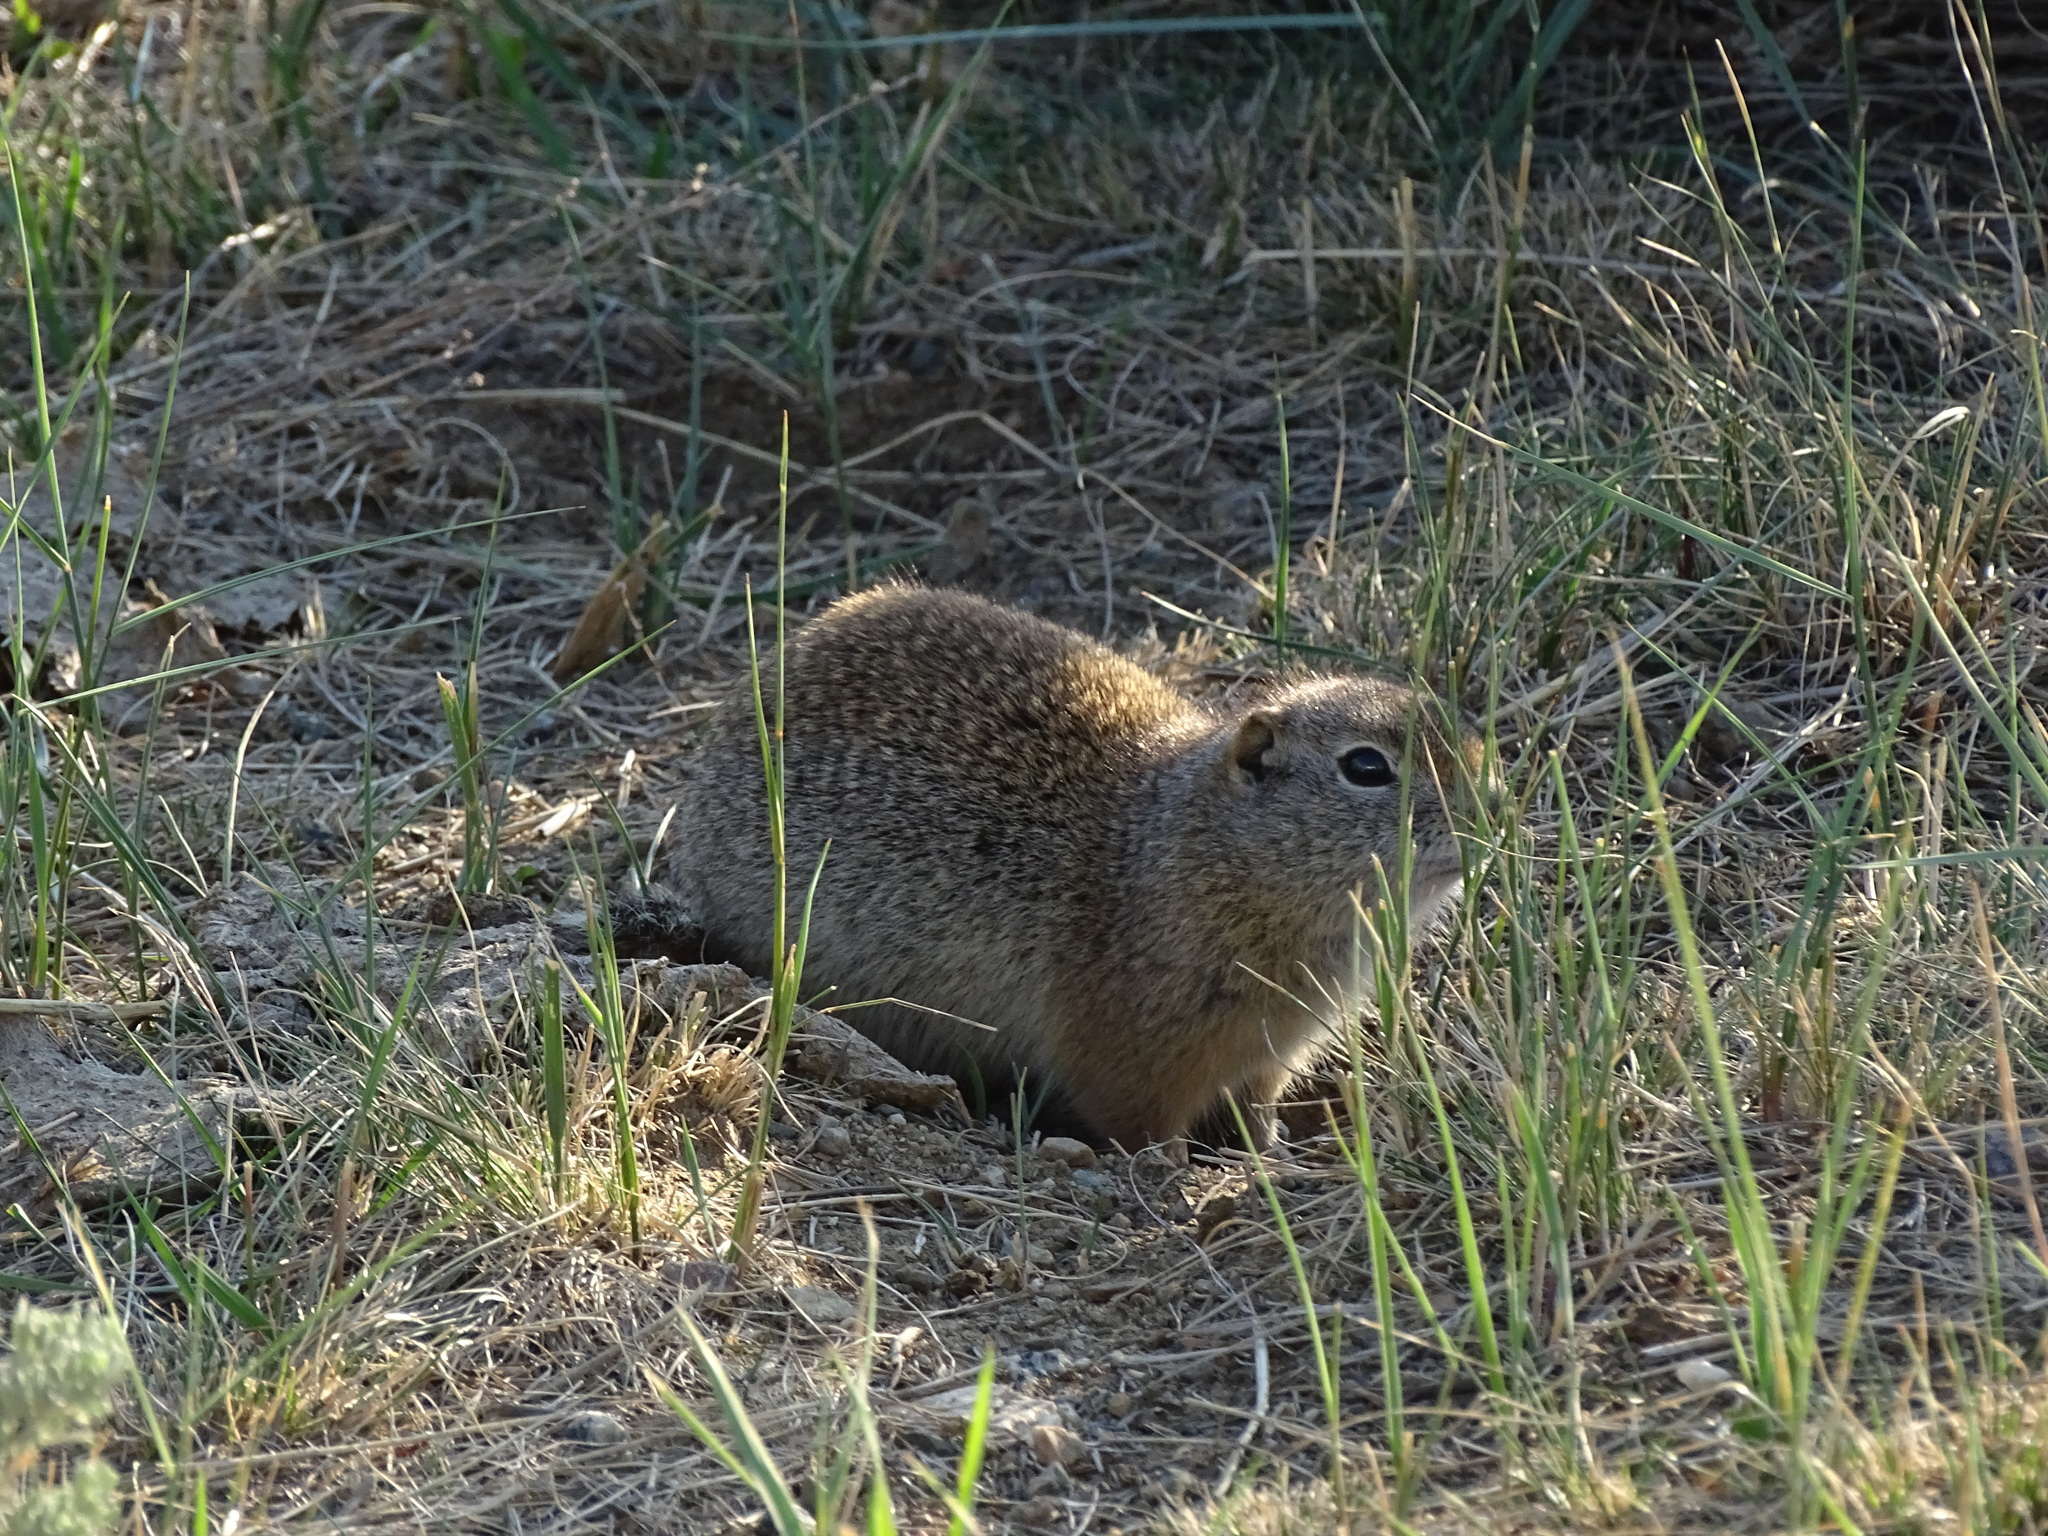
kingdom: Animalia
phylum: Chordata
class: Mammalia
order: Rodentia
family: Sciuridae
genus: Urocitellus
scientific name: Urocitellus elegans
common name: Wyoming ground squirrel
